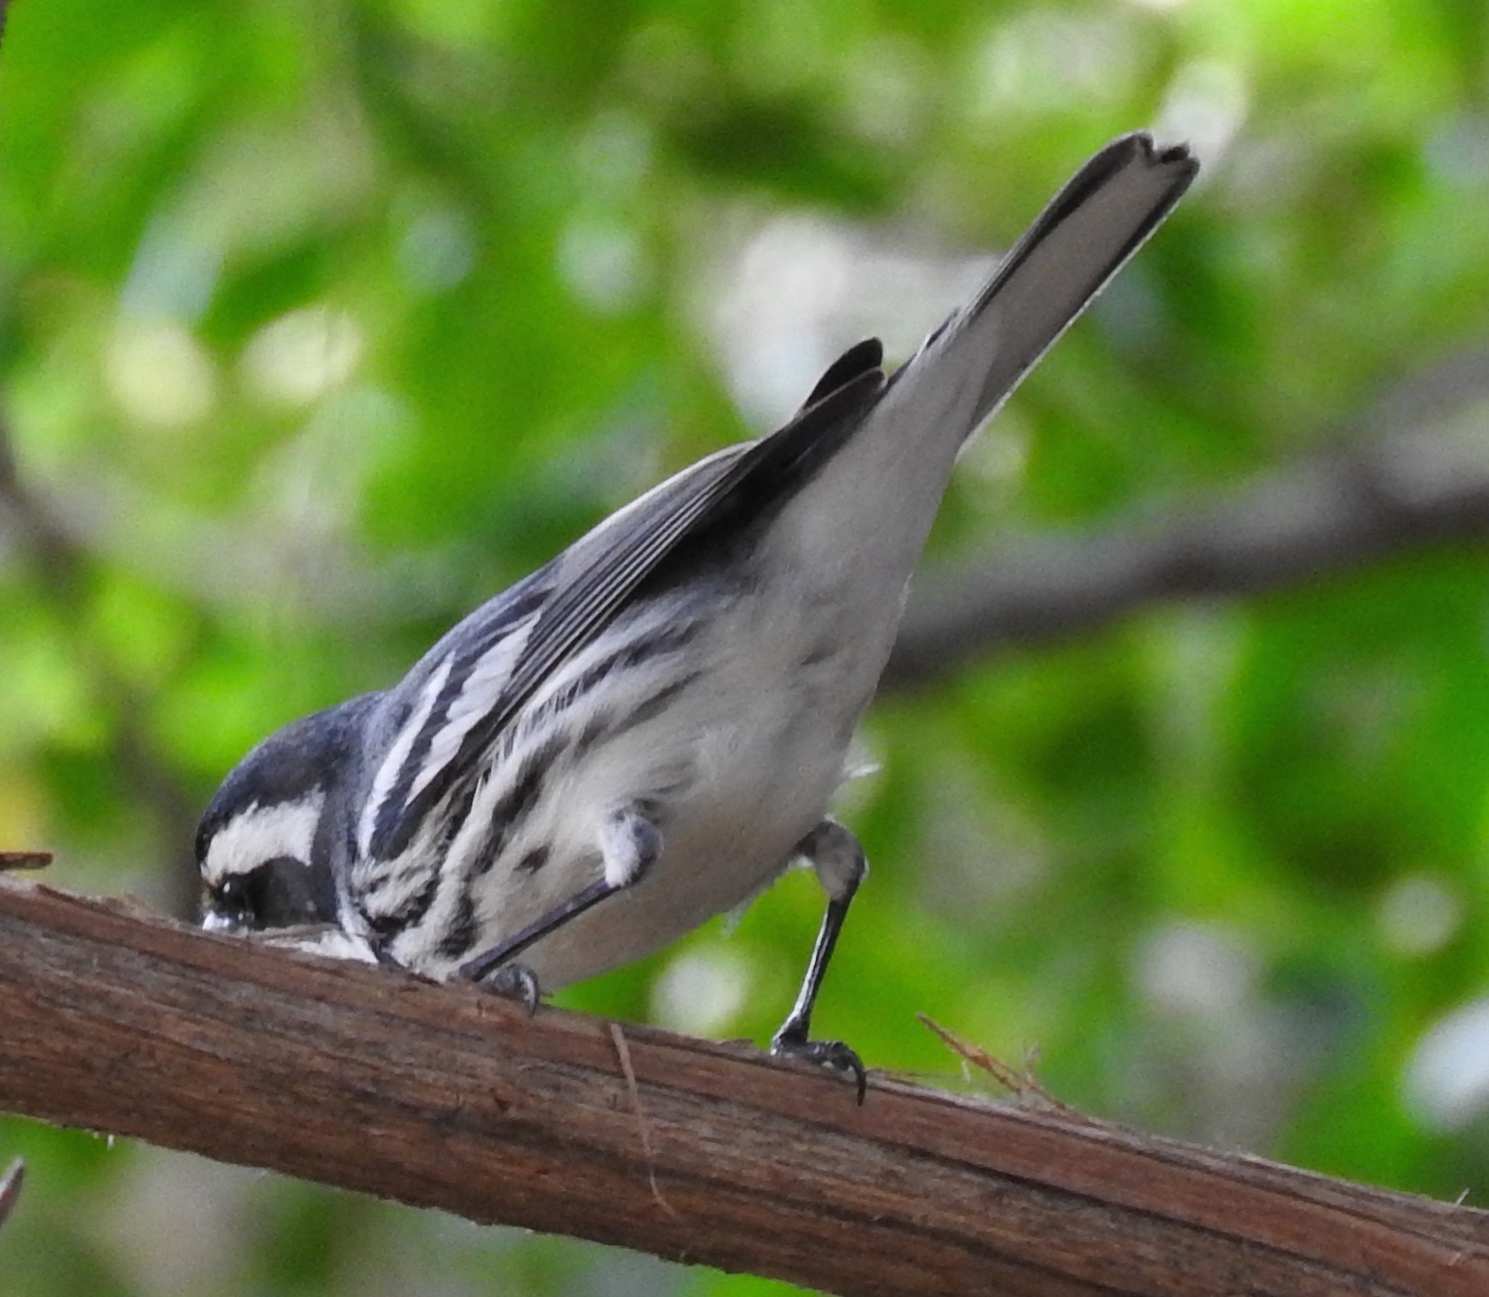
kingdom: Animalia
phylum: Chordata
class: Aves
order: Passeriformes
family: Parulidae
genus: Setophaga
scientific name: Setophaga nigrescens
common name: Black-throated gray warbler
